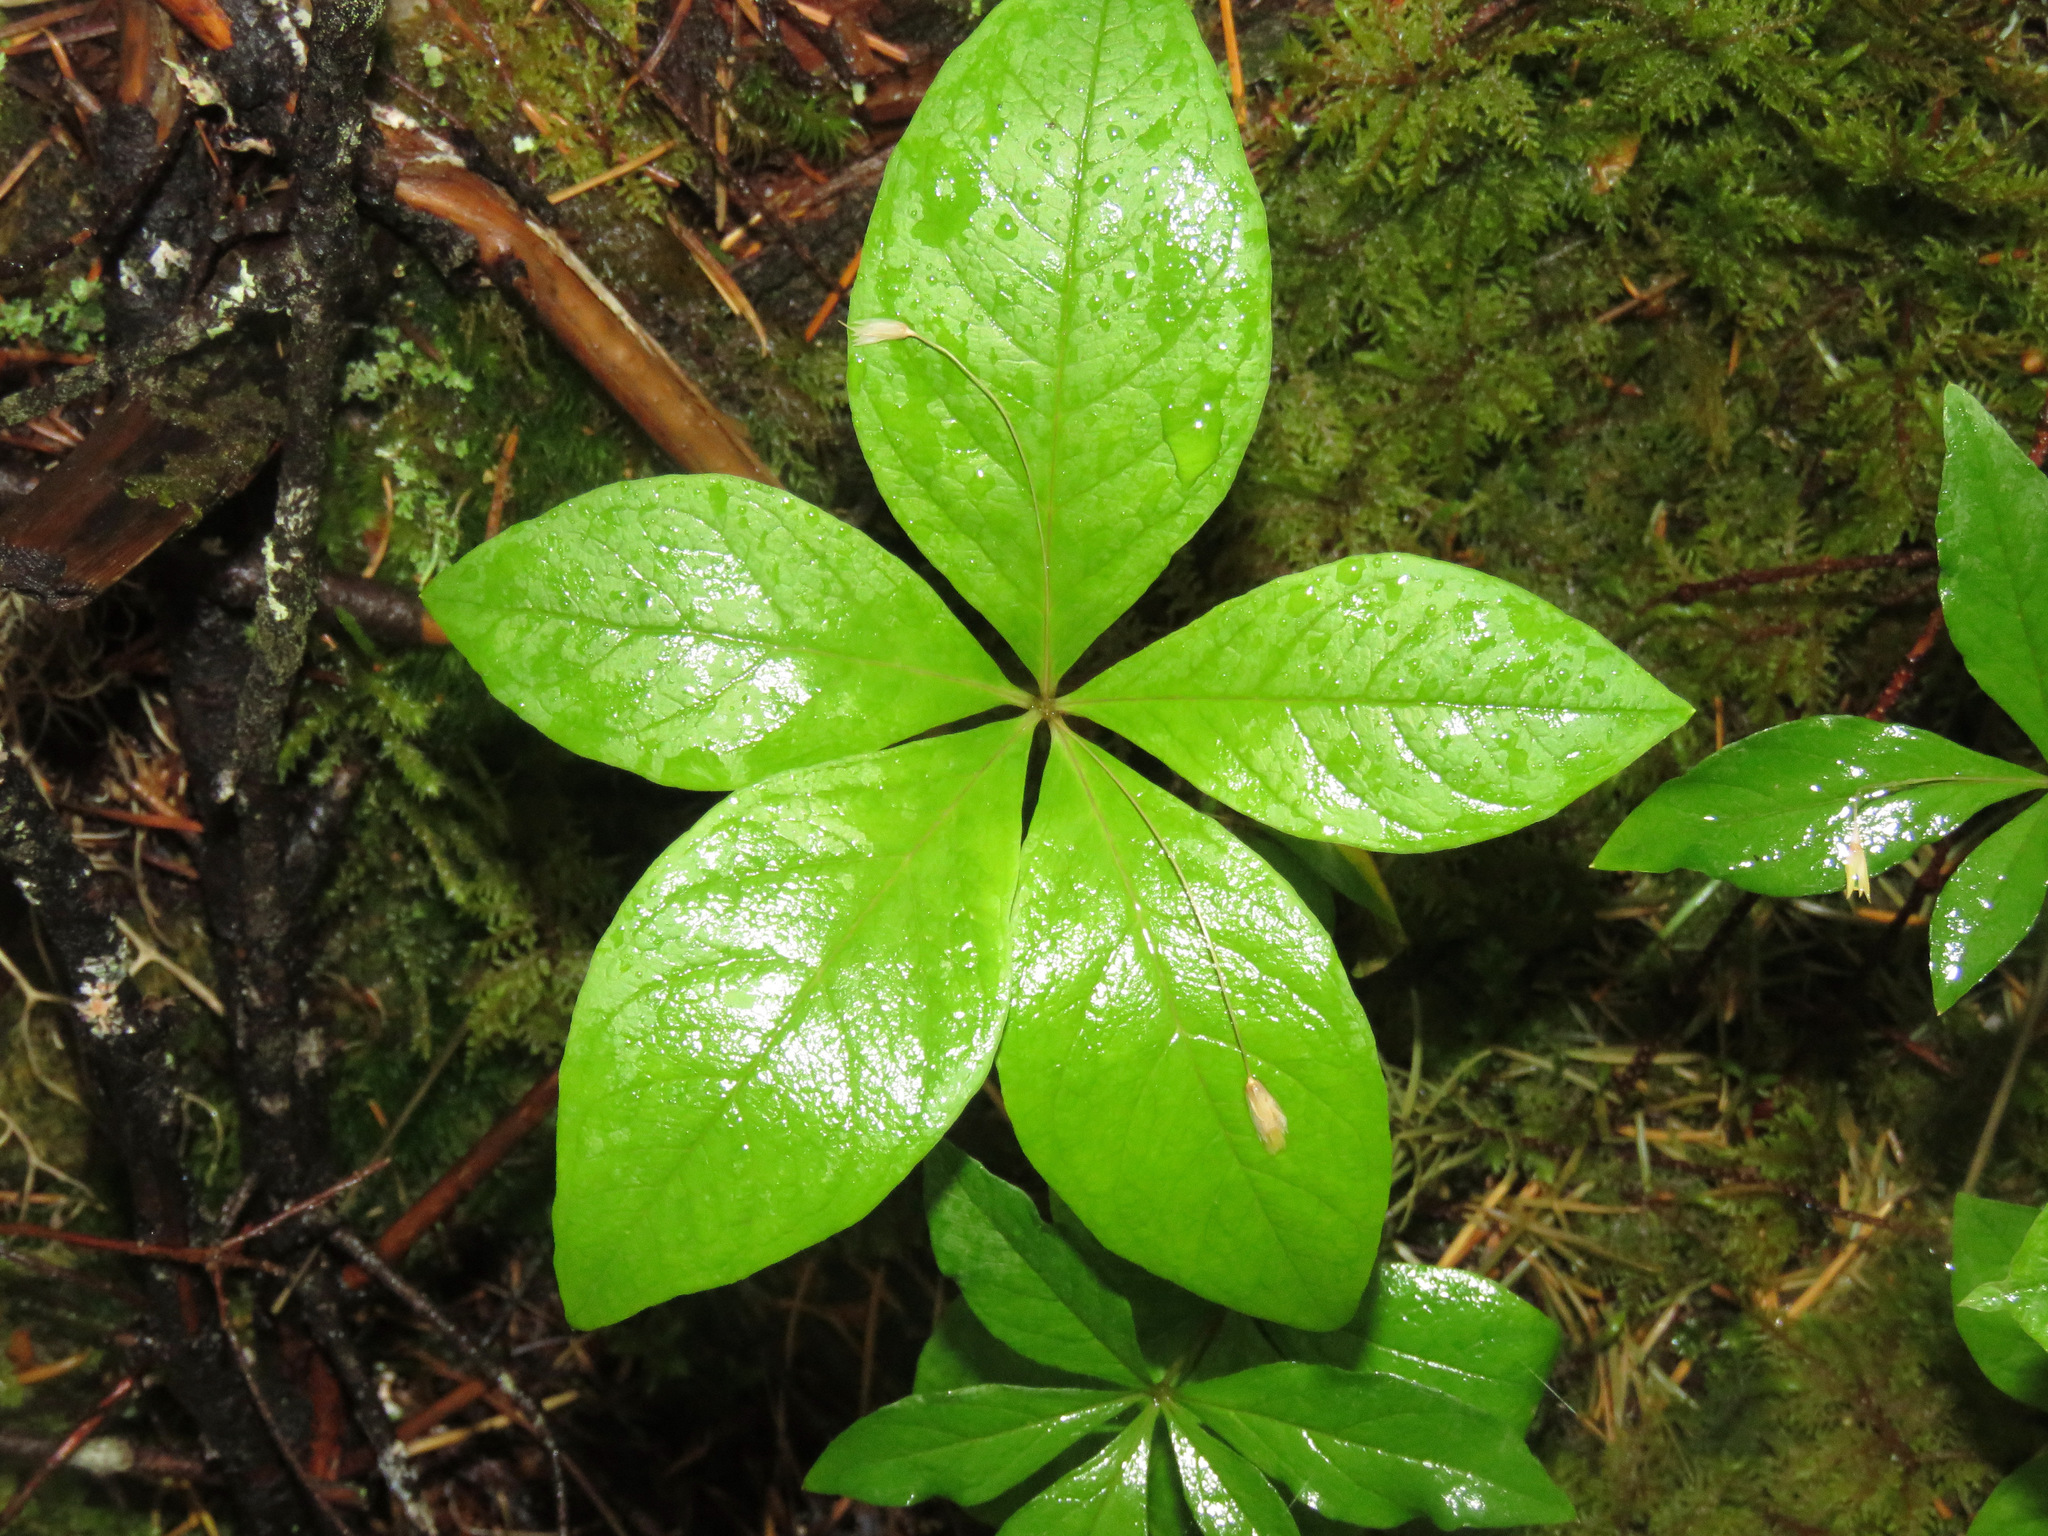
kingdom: Plantae
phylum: Tracheophyta
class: Magnoliopsida
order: Ericales
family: Primulaceae
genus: Lysimachia
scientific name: Lysimachia latifolia
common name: Pacific starflower
